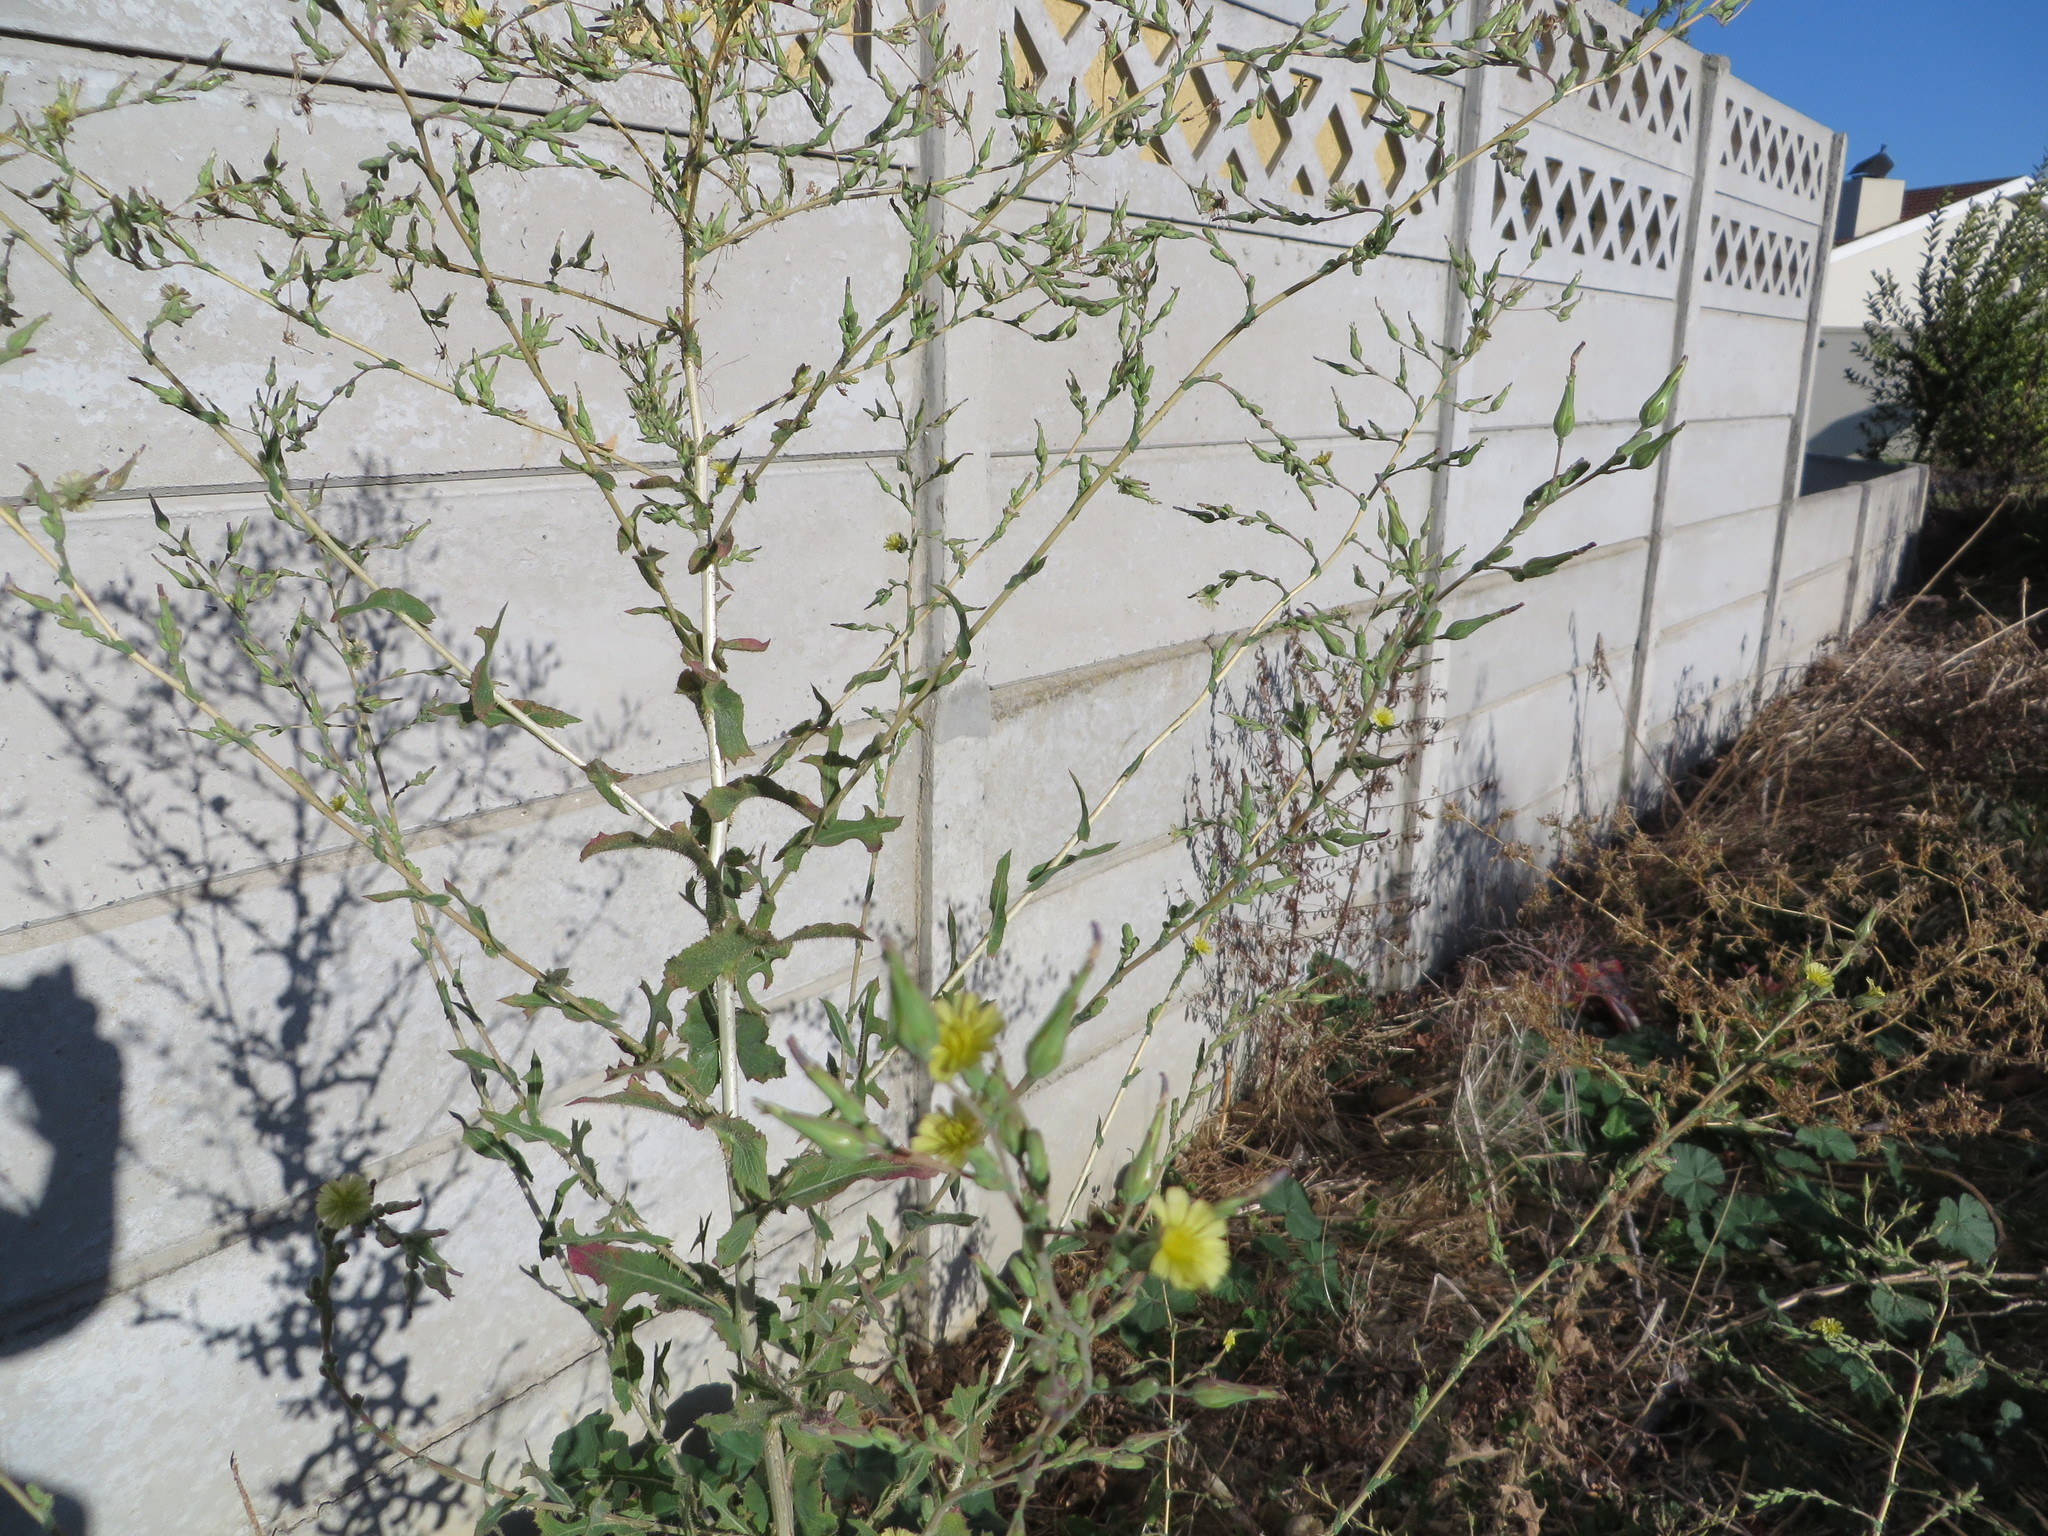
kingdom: Plantae
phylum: Tracheophyta
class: Magnoliopsida
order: Asterales
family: Asteraceae
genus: Lactuca
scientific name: Lactuca serriola
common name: Prickly lettuce
